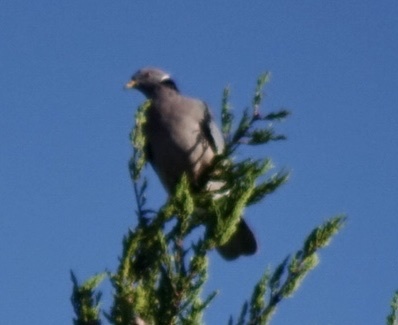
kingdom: Animalia
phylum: Chordata
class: Aves
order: Columbiformes
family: Columbidae
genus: Patagioenas
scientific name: Patagioenas fasciata
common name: Band-tailed pigeon
